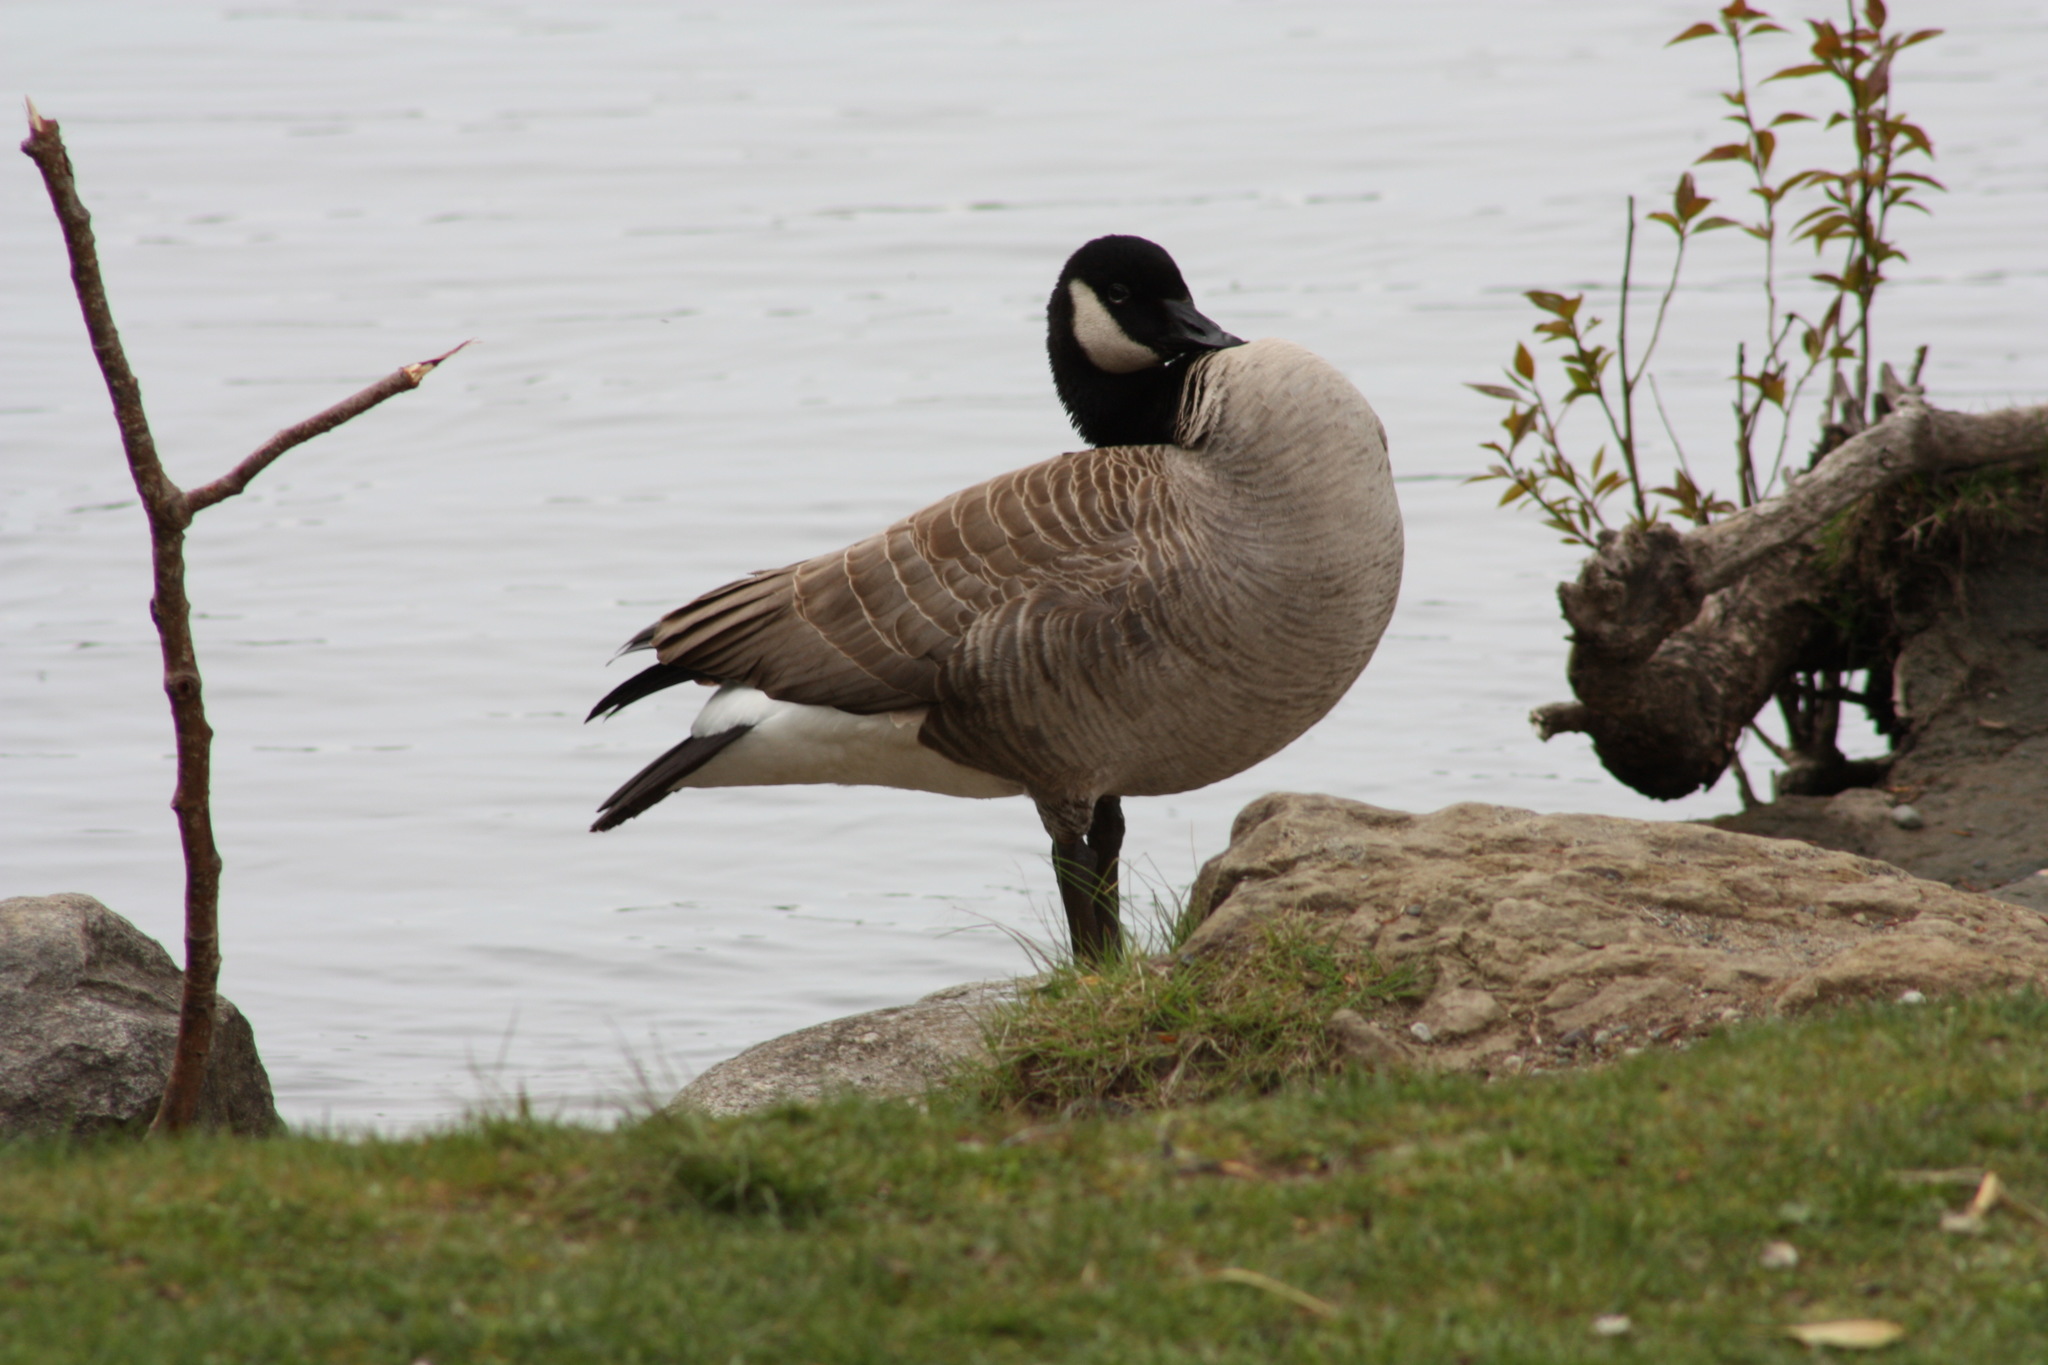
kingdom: Animalia
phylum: Chordata
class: Aves
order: Anseriformes
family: Anatidae
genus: Branta
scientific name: Branta canadensis
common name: Canada goose
